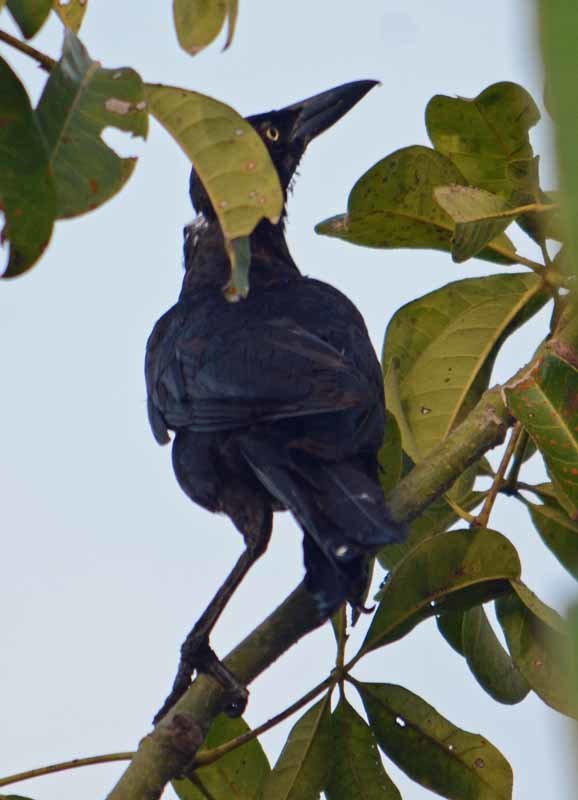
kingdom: Animalia
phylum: Chordata
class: Aves
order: Passeriformes
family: Icteridae
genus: Quiscalus
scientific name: Quiscalus mexicanus
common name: Great-tailed grackle
